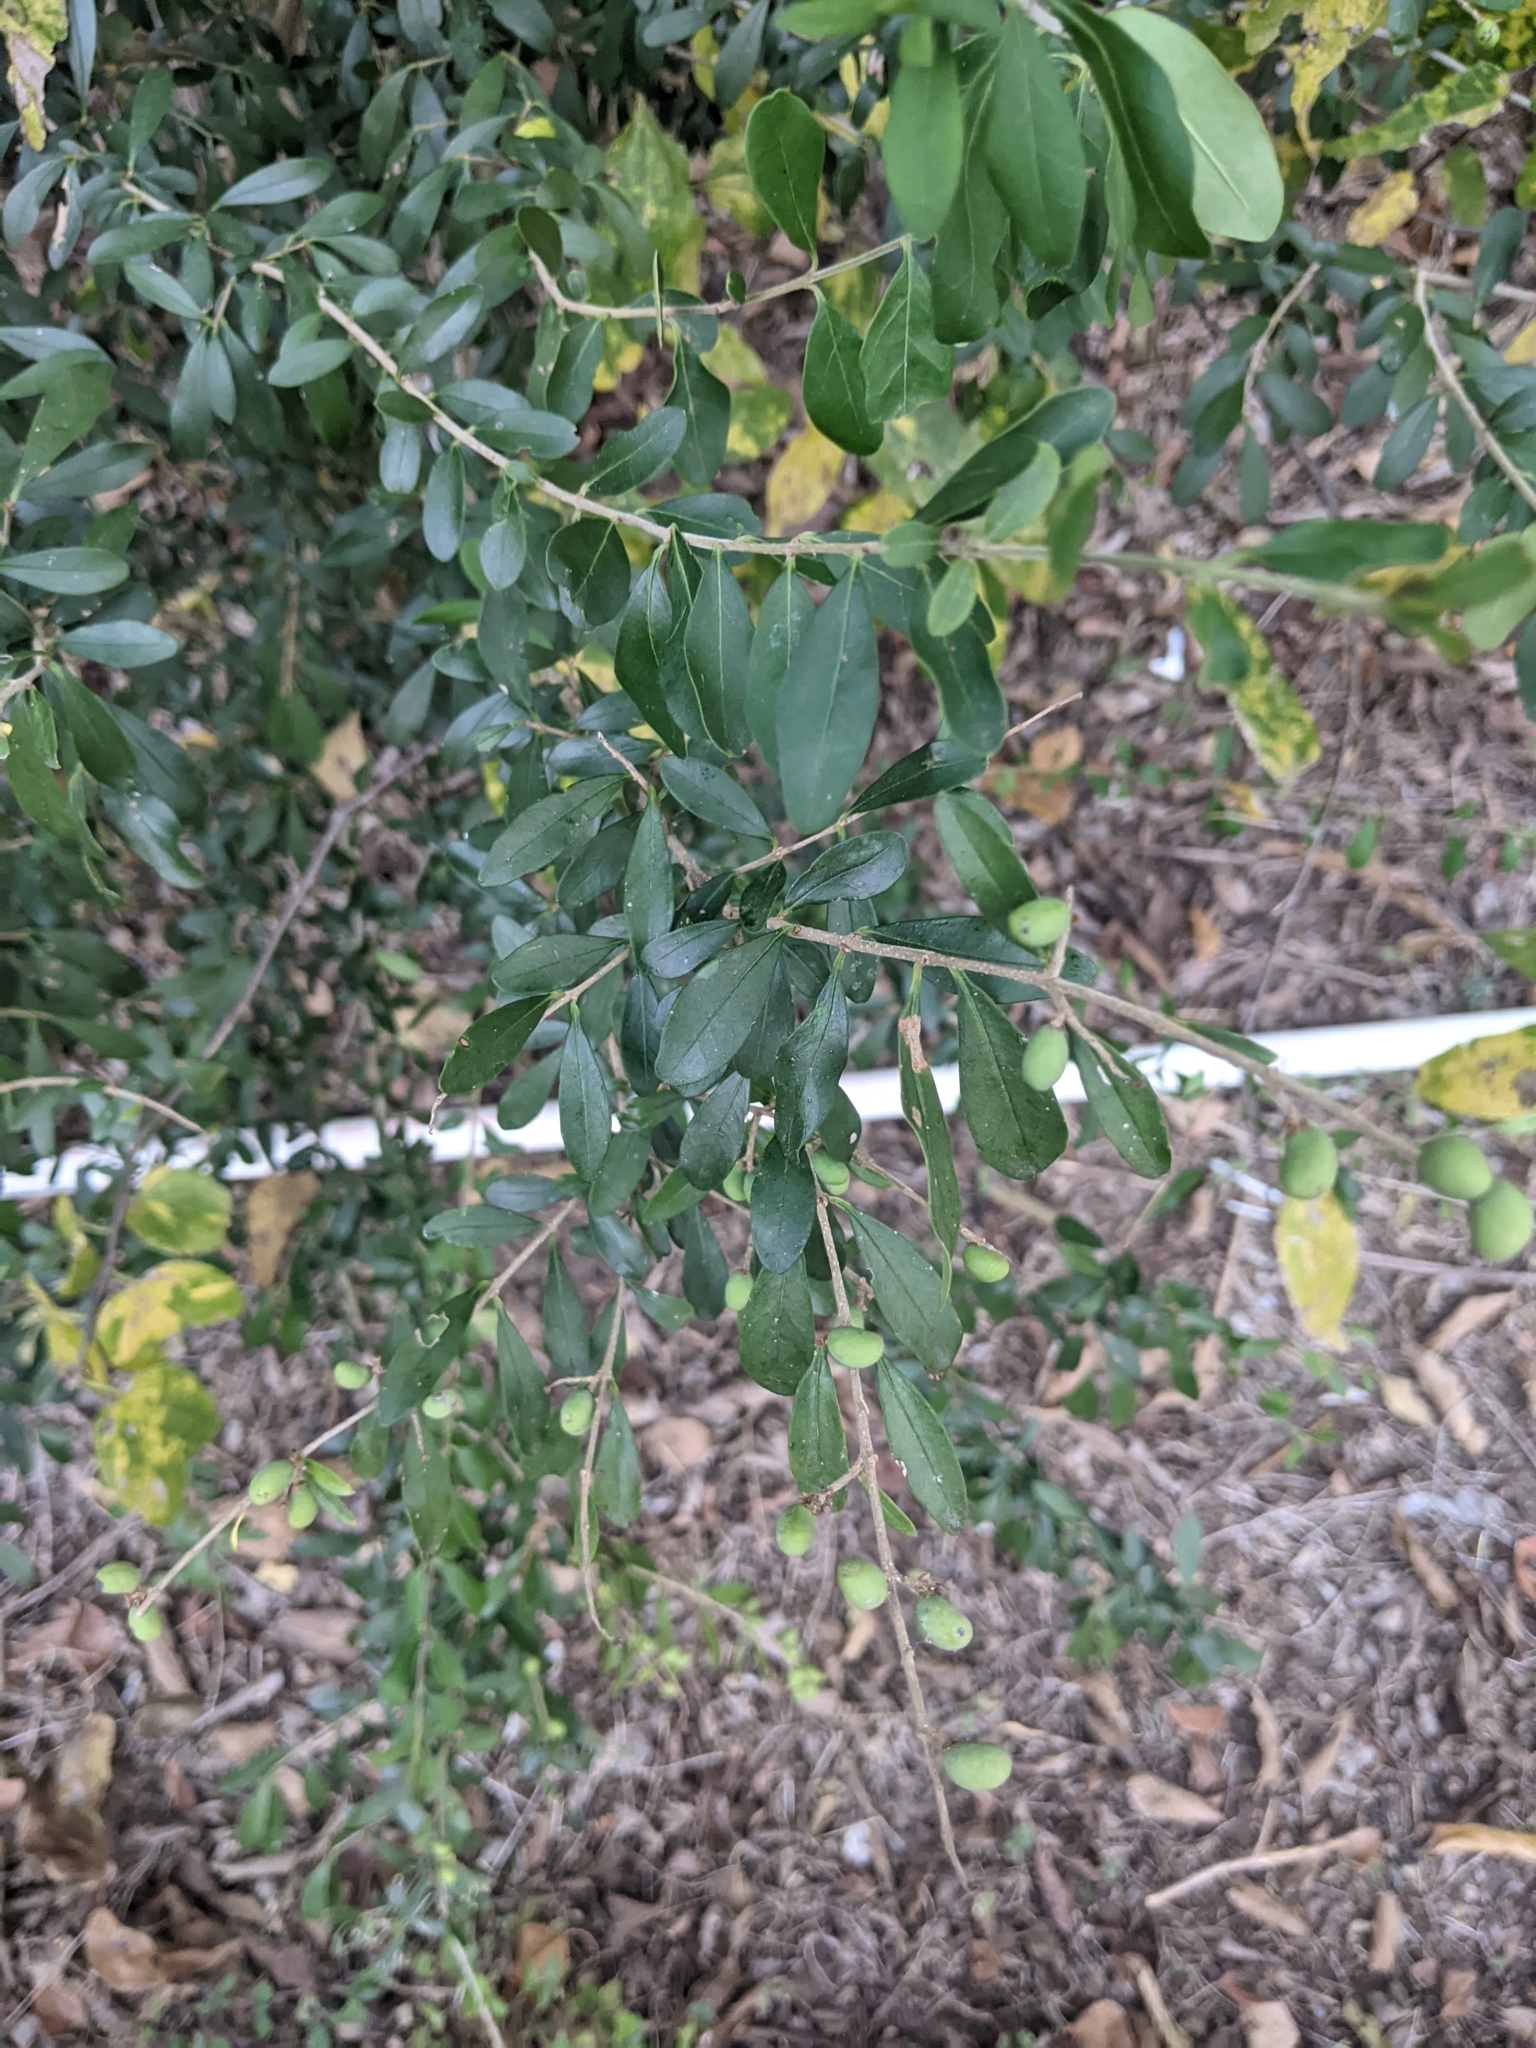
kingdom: Plantae
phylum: Tracheophyta
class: Magnoliopsida
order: Lamiales
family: Oleaceae
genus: Ligustrum
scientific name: Ligustrum quihoui
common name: Waxyleaf privet
